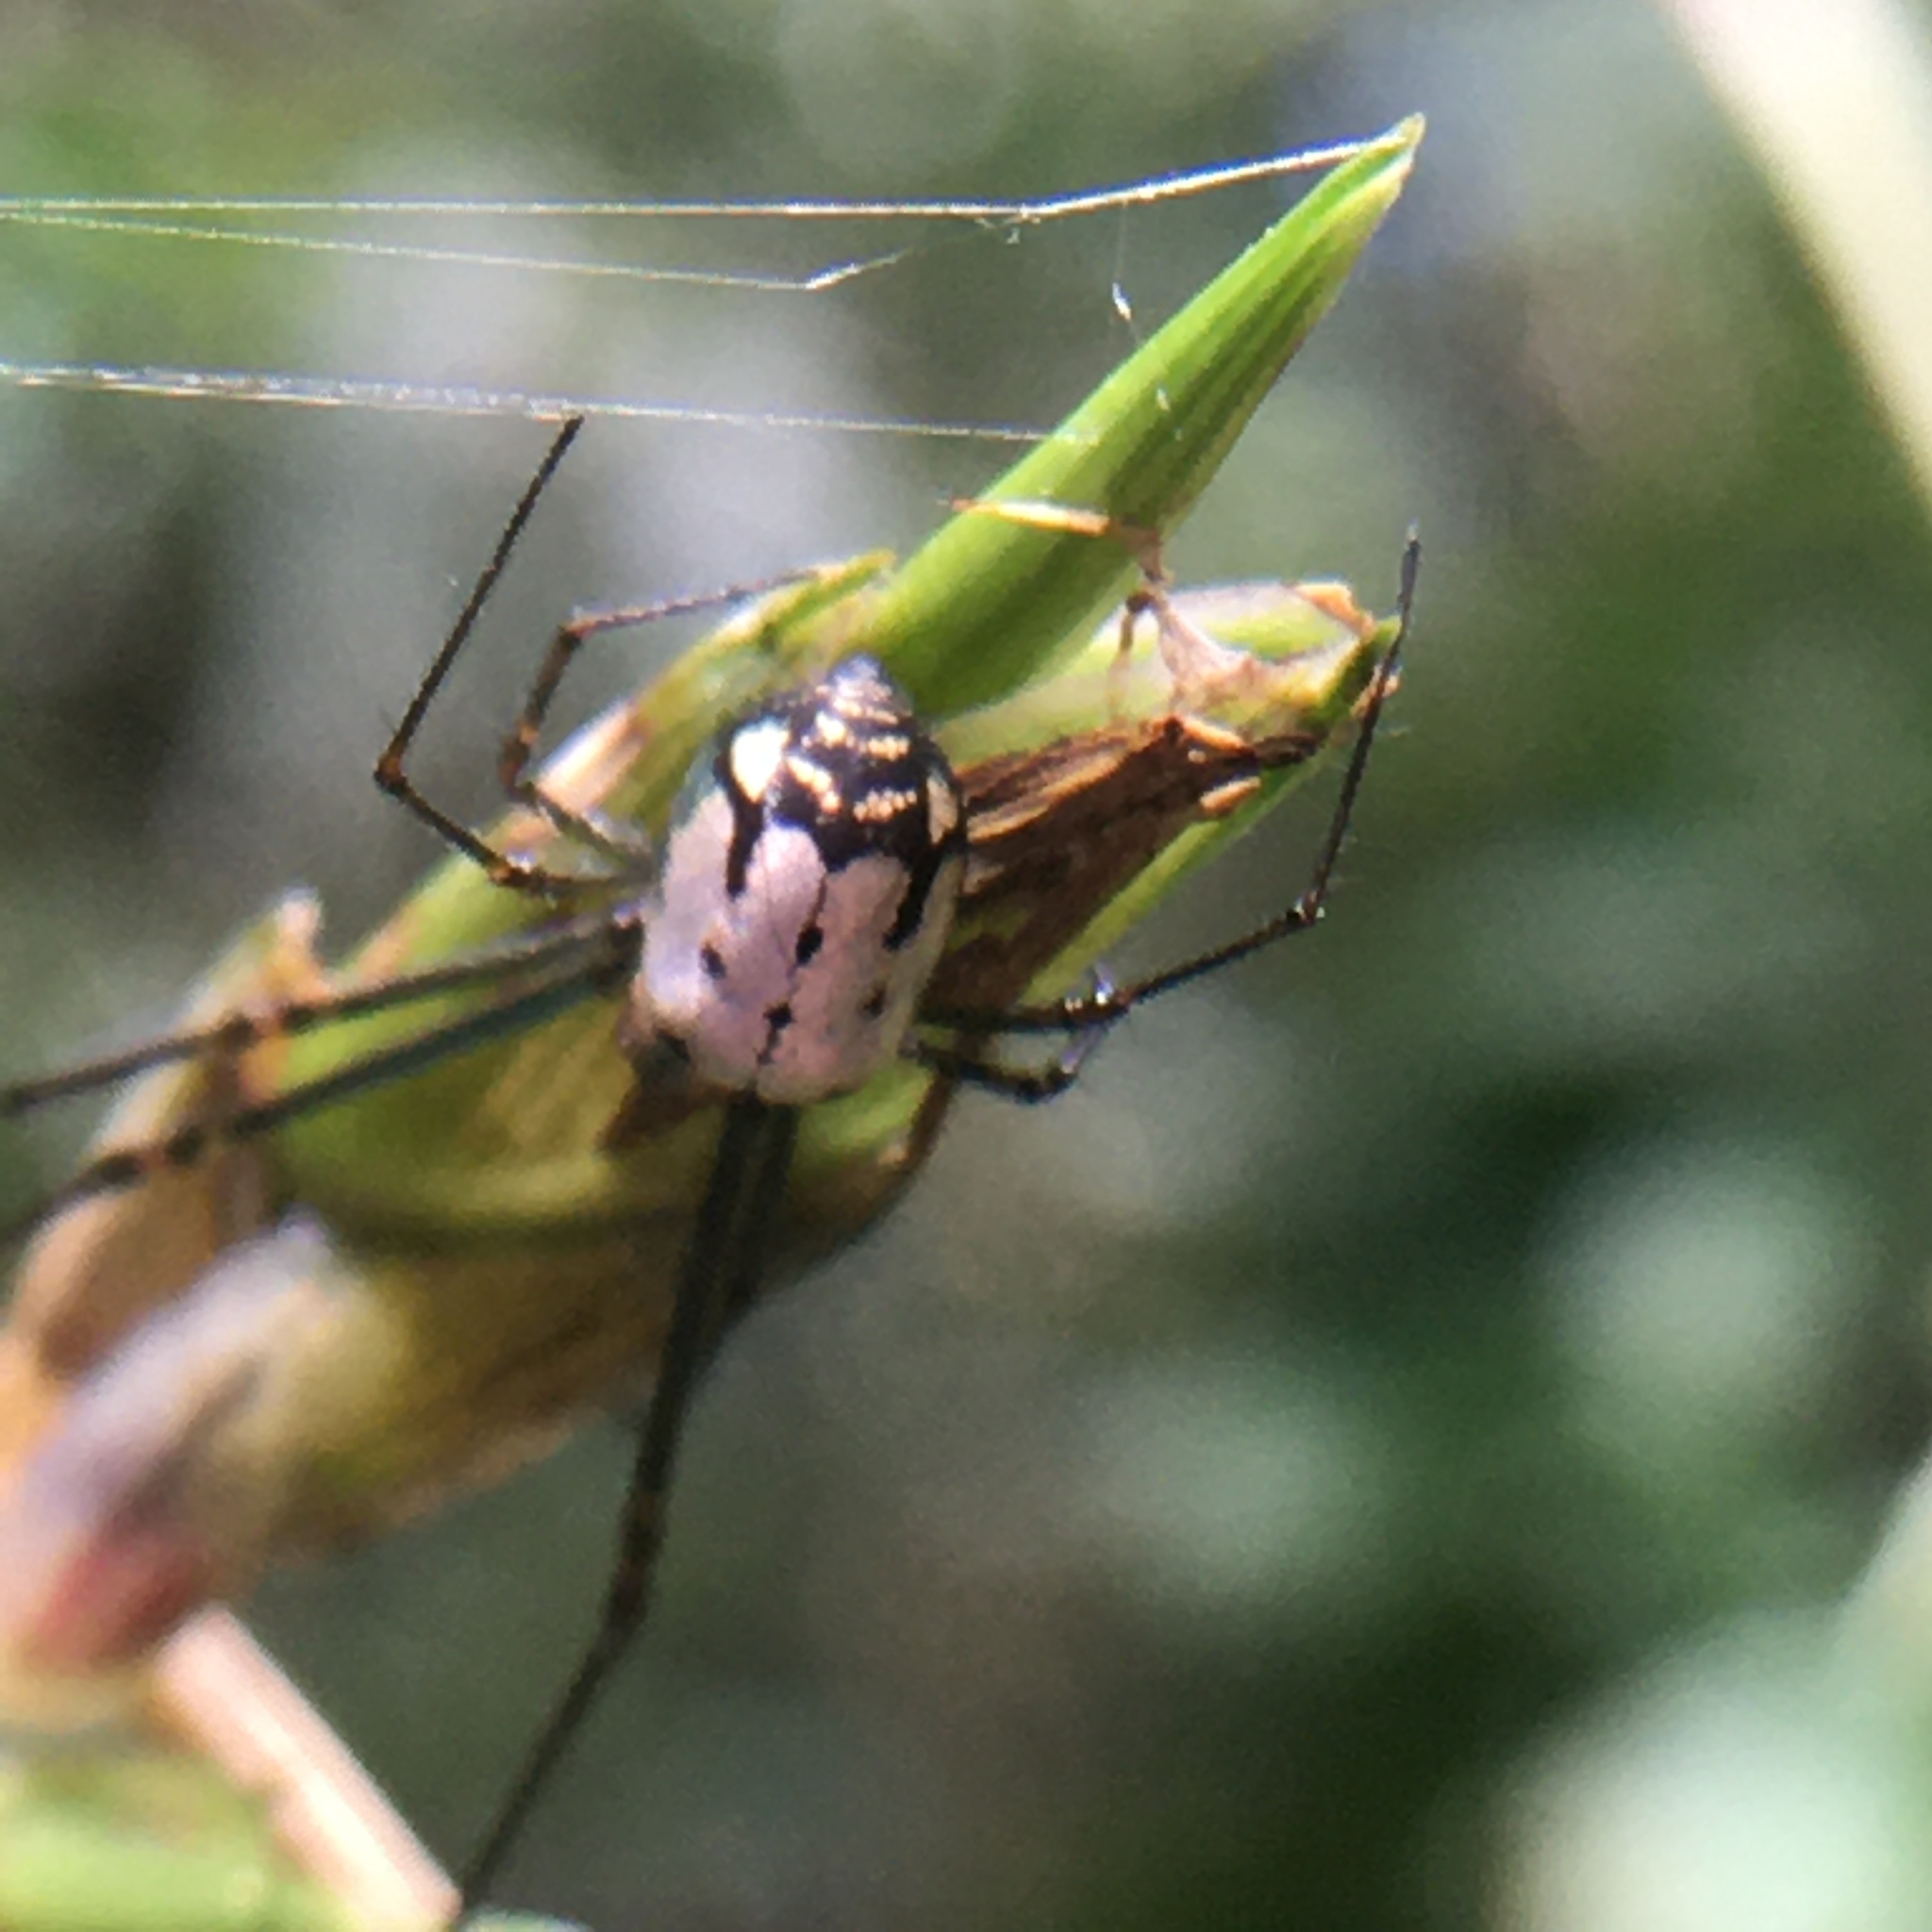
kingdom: Animalia
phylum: Arthropoda
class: Arachnida
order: Araneae
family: Tetragnathidae
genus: Leucauge
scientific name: Leucauge volupis
